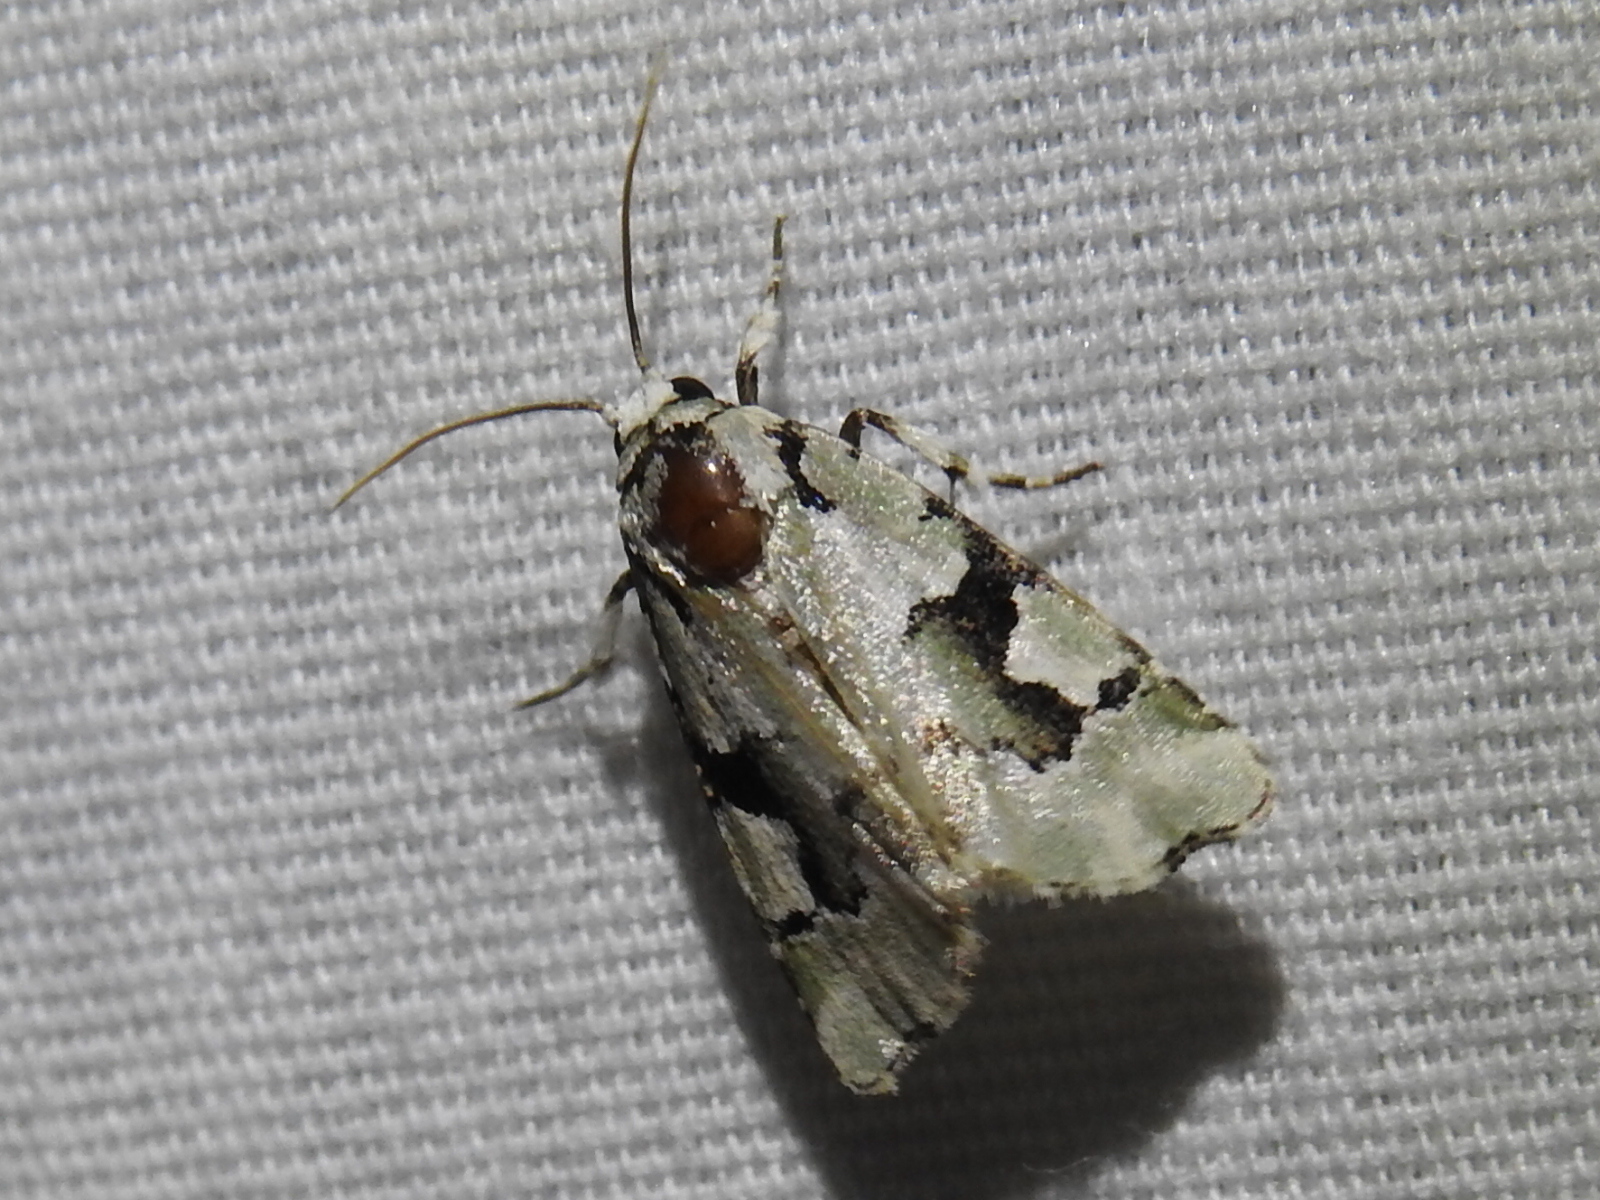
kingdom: Animalia
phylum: Arthropoda
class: Insecta
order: Lepidoptera
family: Noctuidae
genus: Emarginea
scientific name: Emarginea percara
